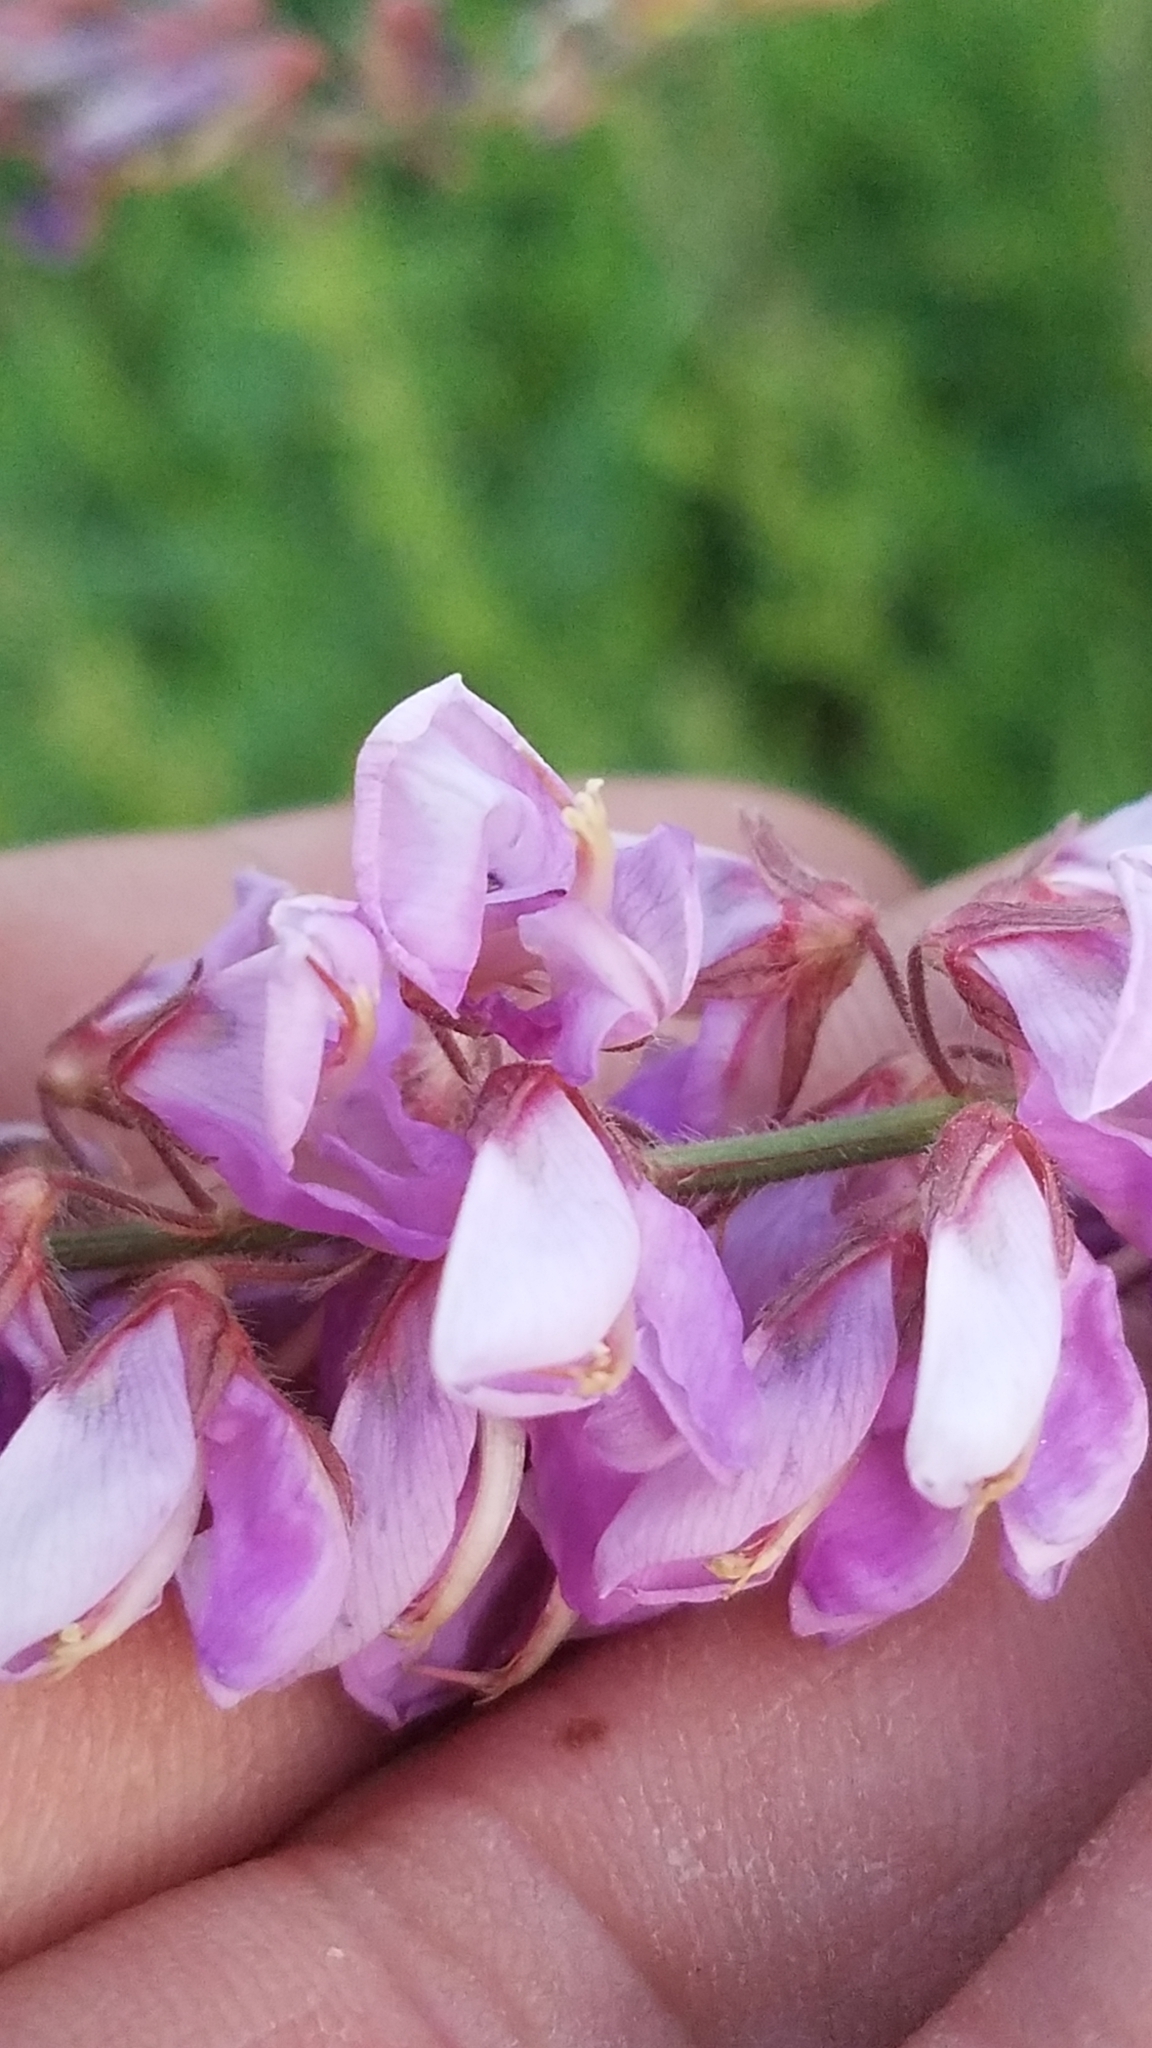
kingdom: Plantae
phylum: Tracheophyta
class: Magnoliopsida
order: Fabales
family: Fabaceae
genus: Desmodium
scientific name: Desmodium canadense
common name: Canada tick-trefoil
